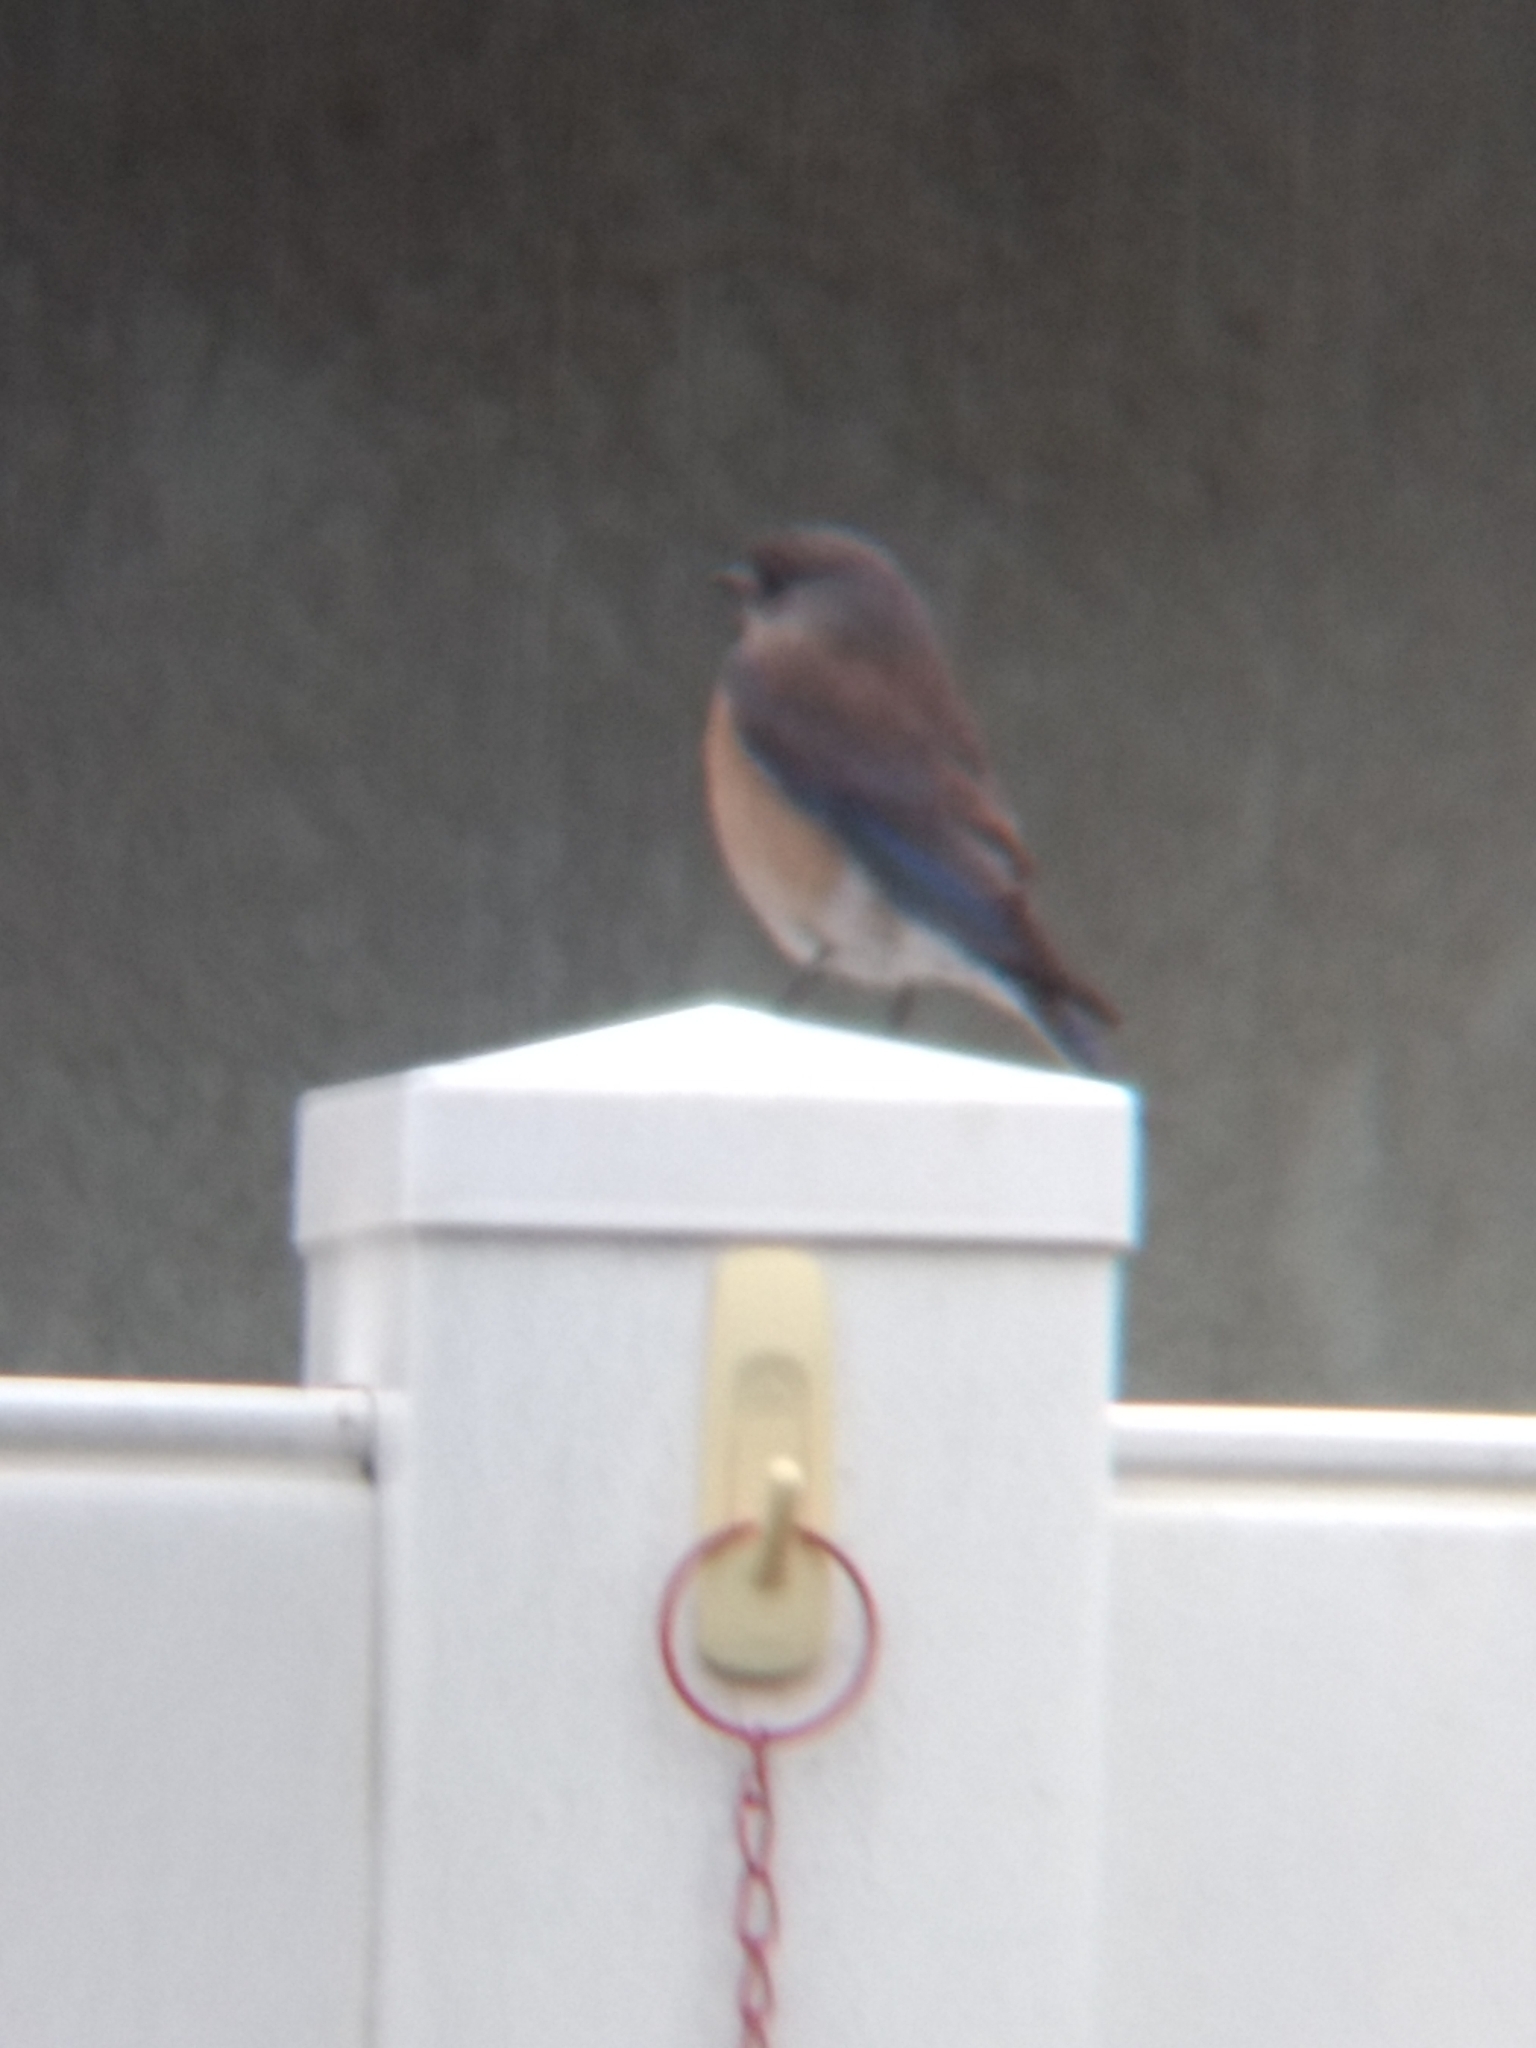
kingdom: Animalia
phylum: Chordata
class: Aves
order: Passeriformes
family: Turdidae
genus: Sialia
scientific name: Sialia mexicana
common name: Western bluebird
